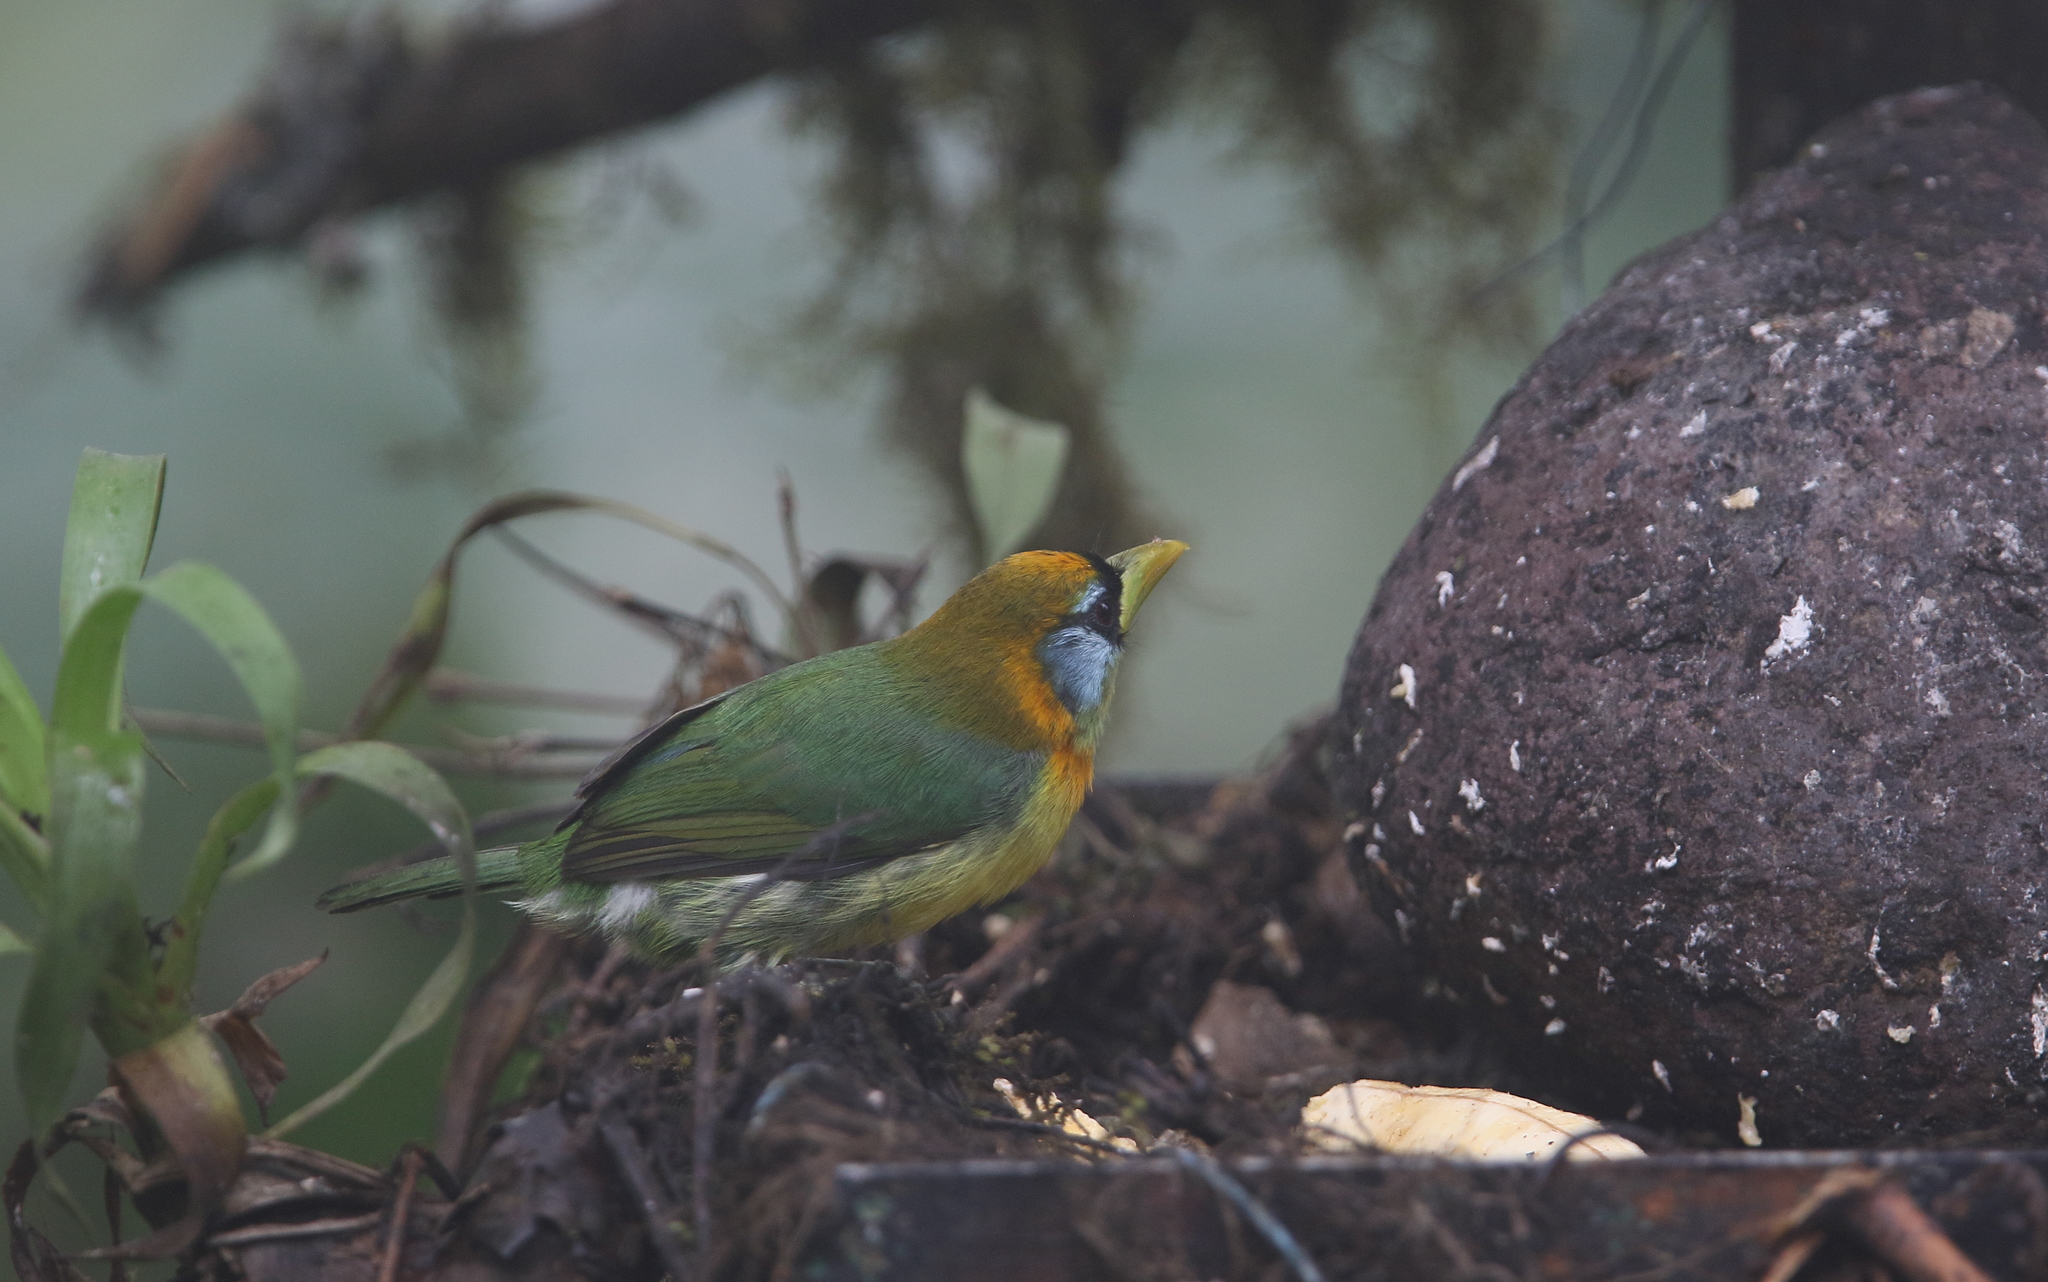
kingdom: Animalia
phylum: Chordata
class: Aves
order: Piciformes
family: Capitonidae
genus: Eubucco
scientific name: Eubucco bourcierii
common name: Red-headed barbet
